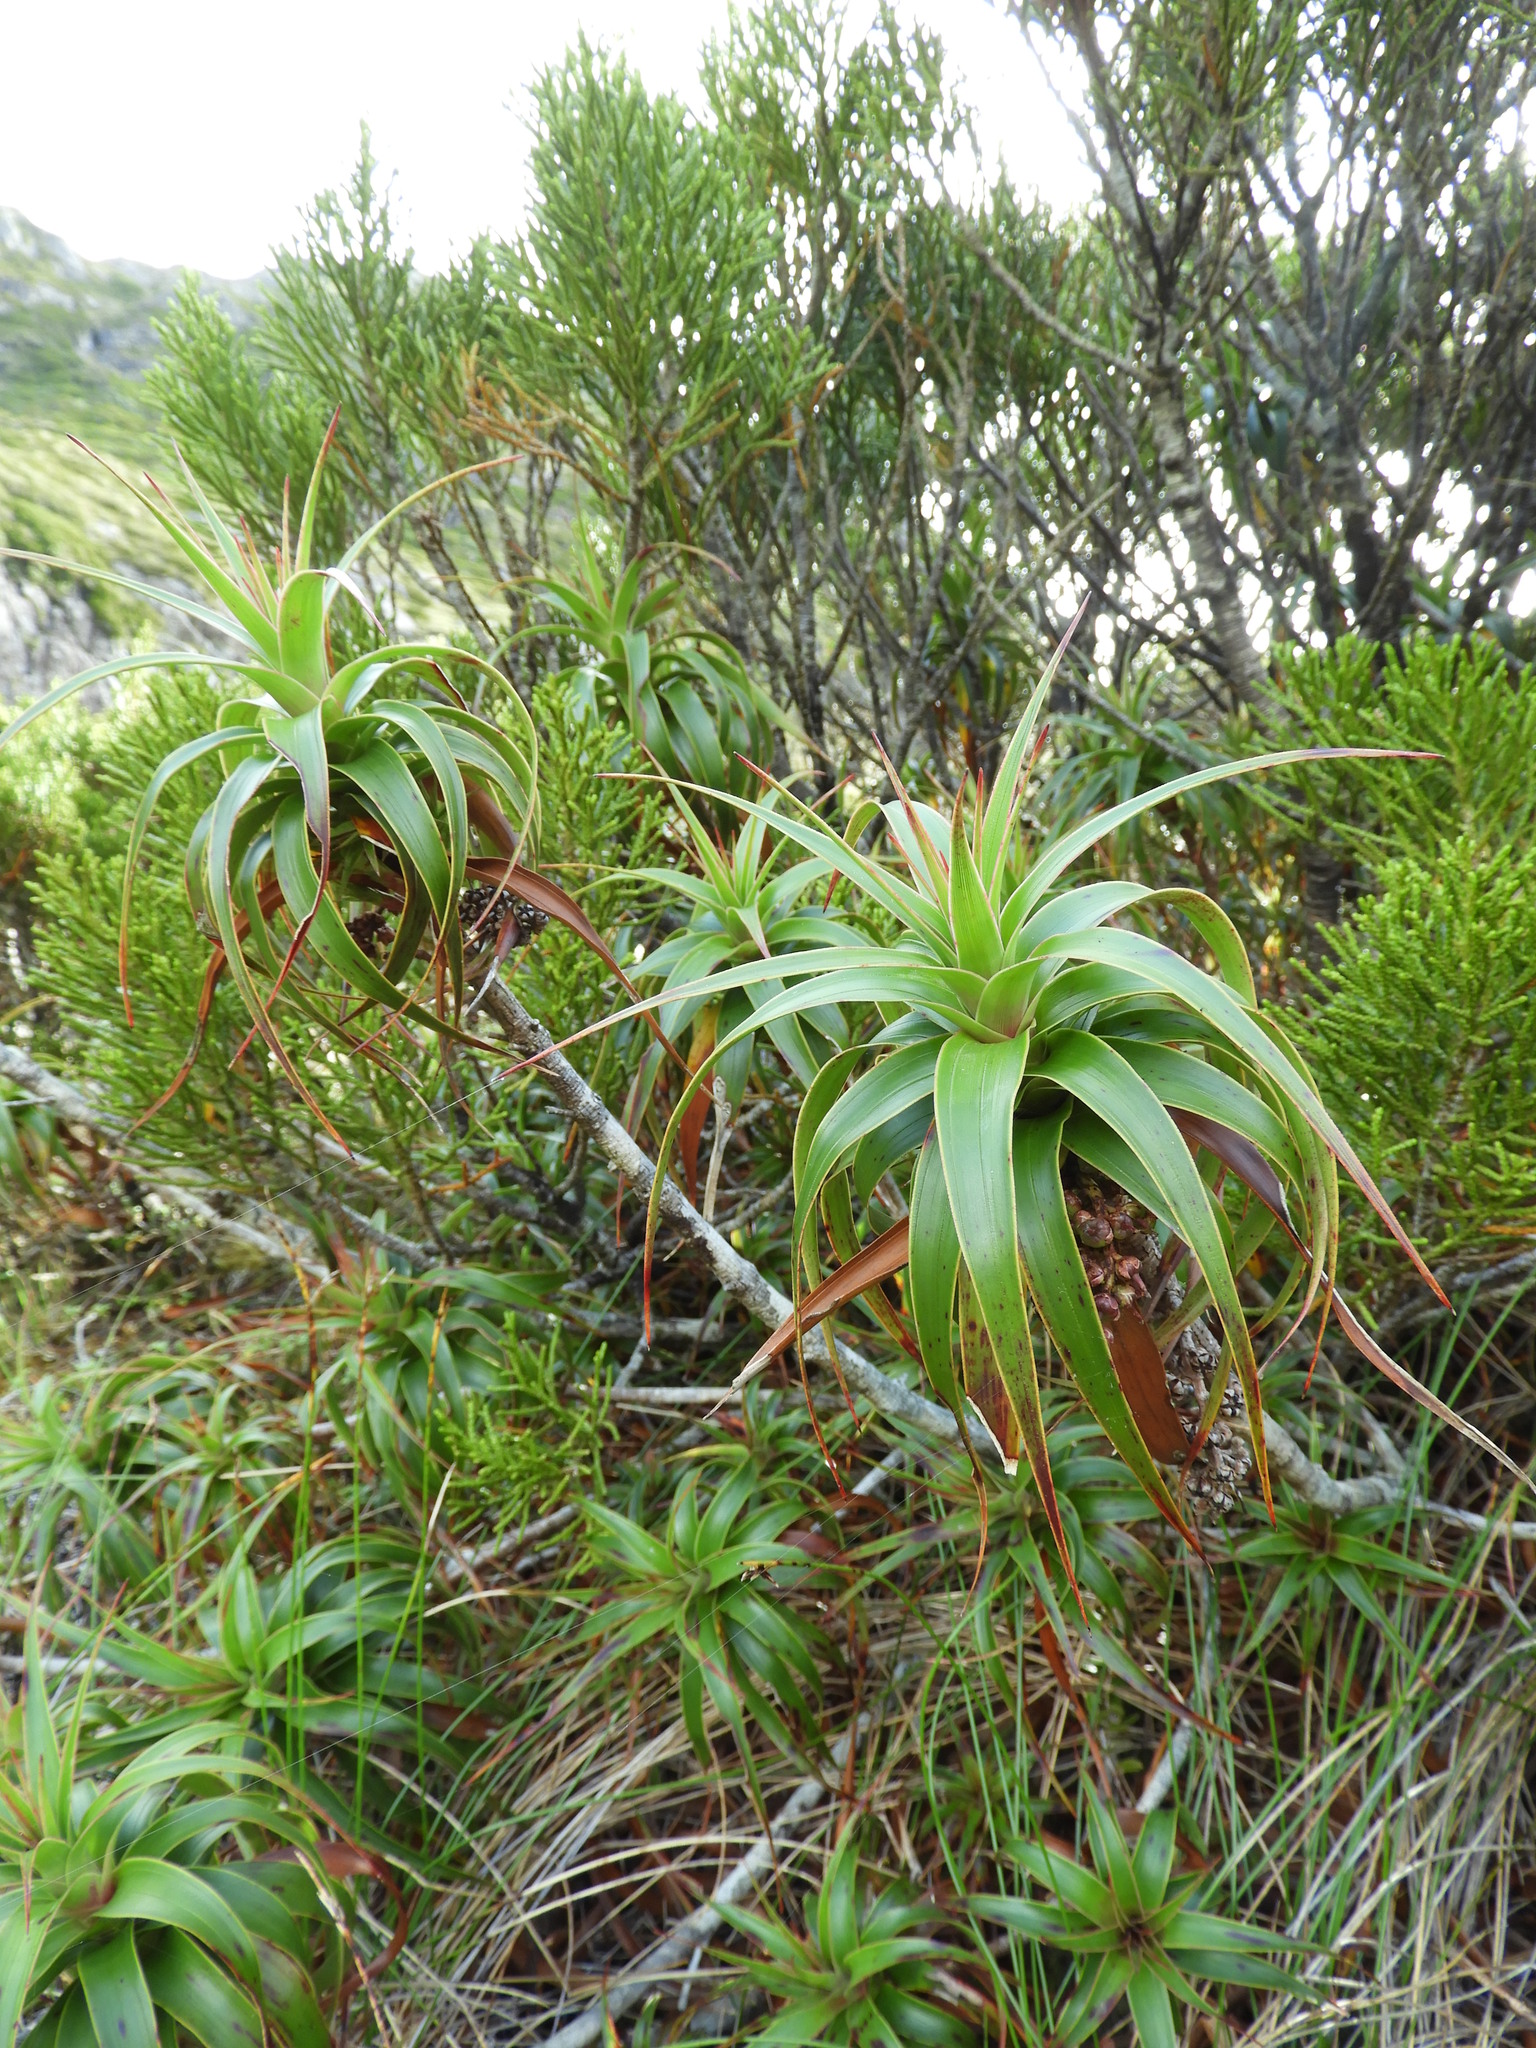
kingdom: Plantae
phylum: Tracheophyta
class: Magnoliopsida
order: Ericales
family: Ericaceae
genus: Dracophyllum
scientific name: Dracophyllum menziesii
